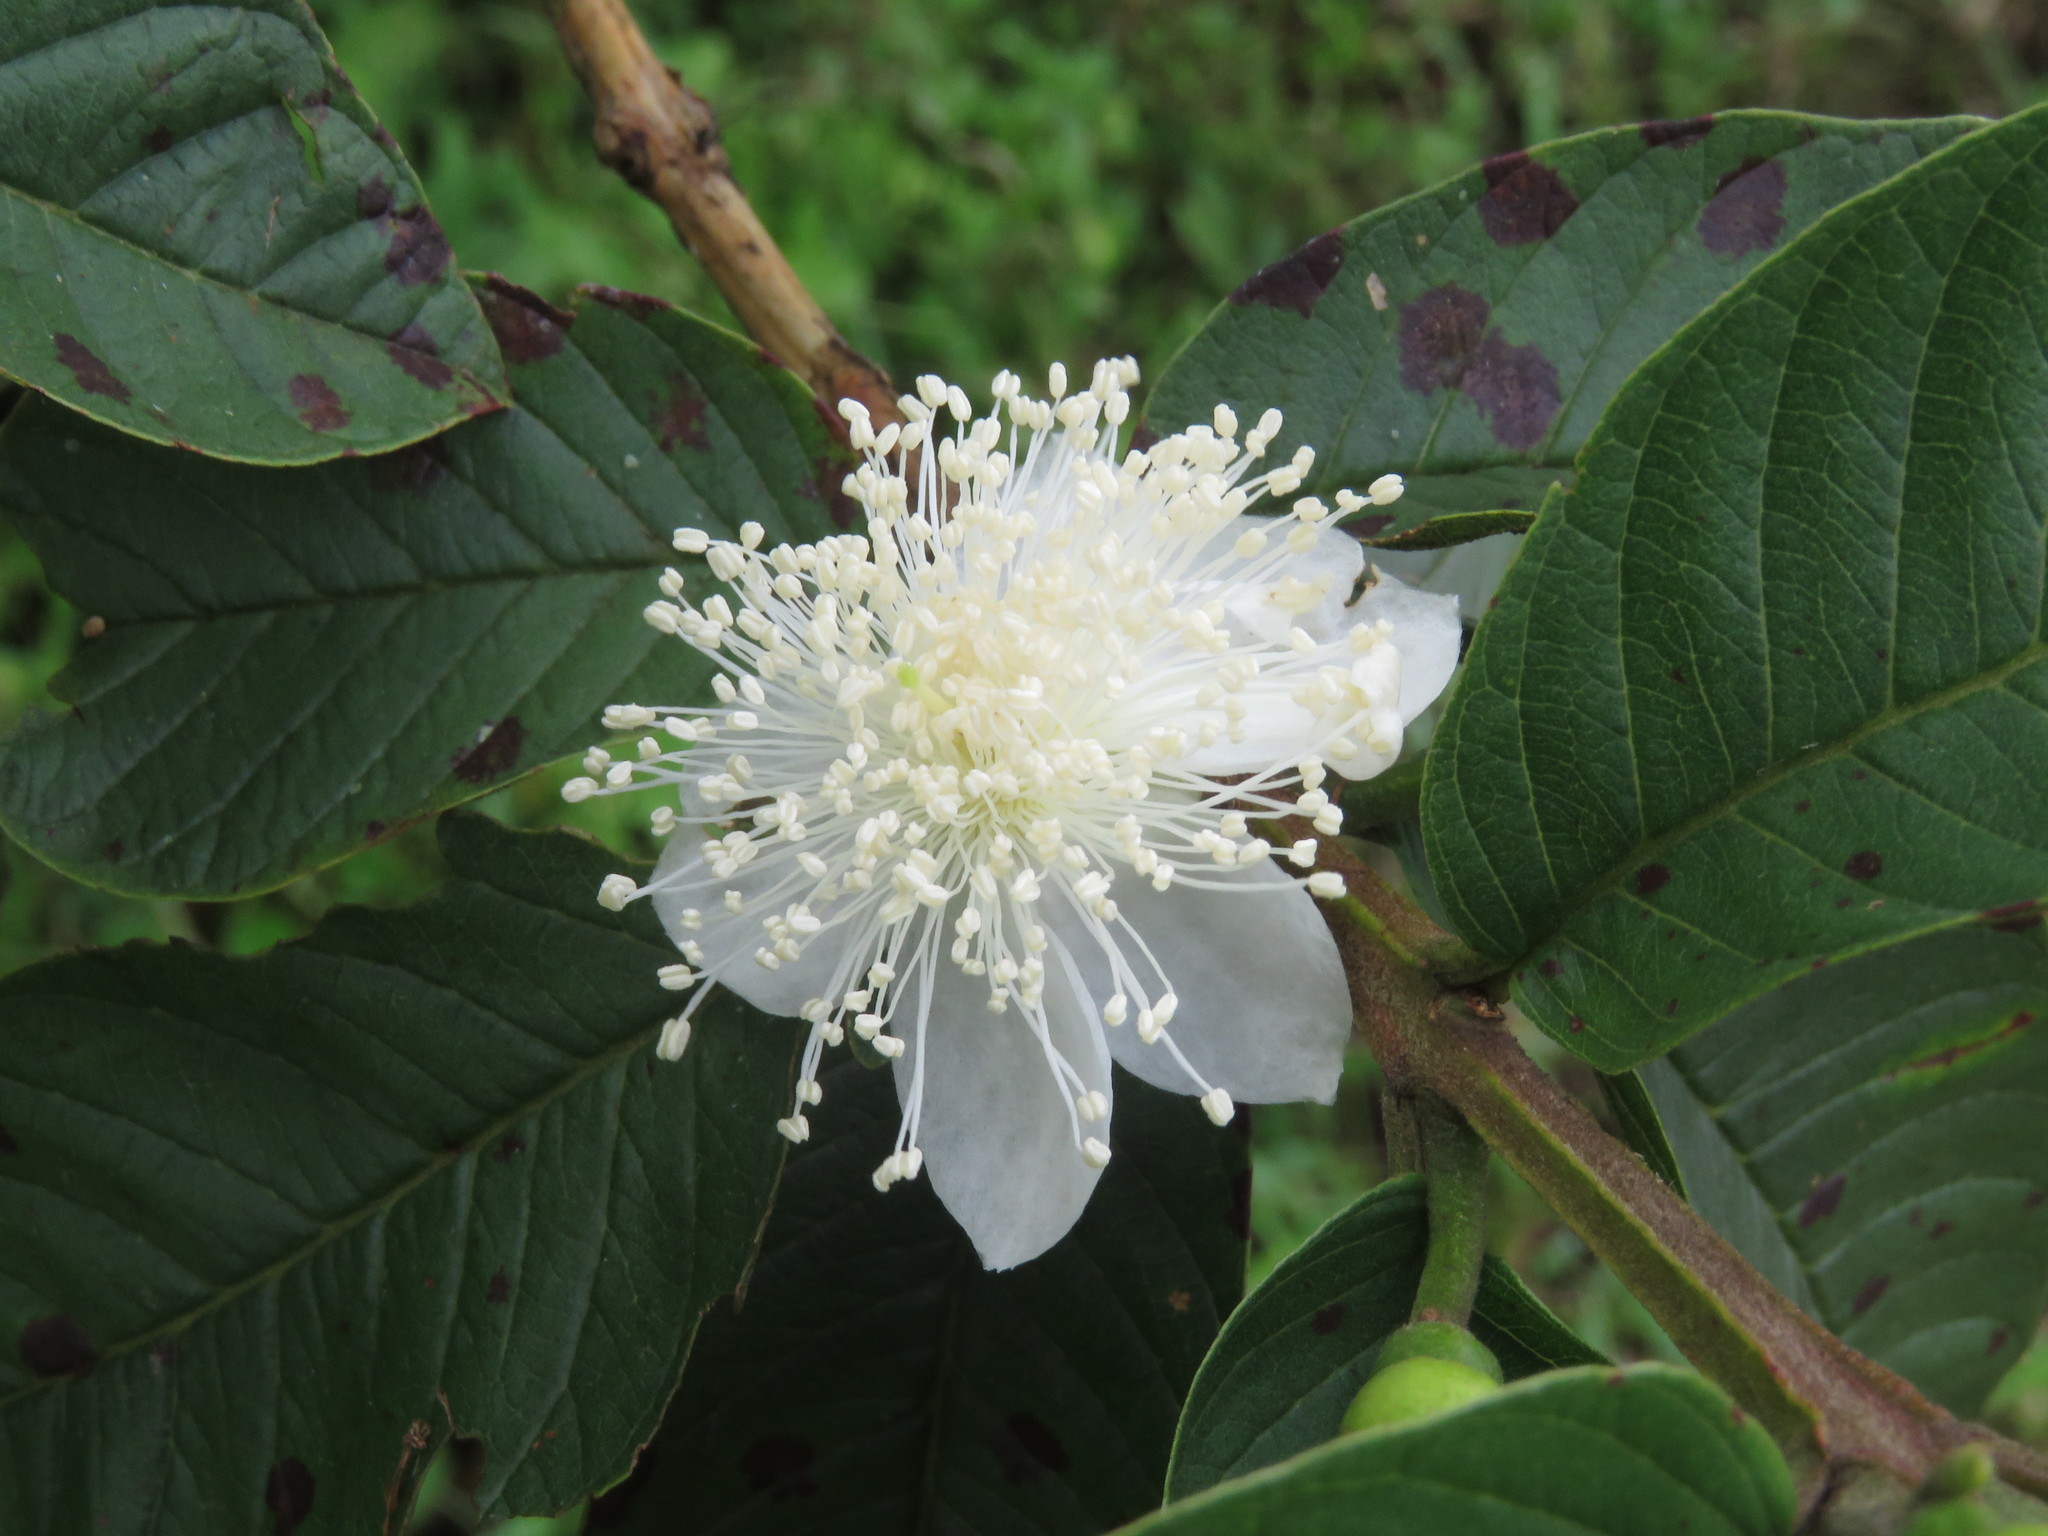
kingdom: Plantae
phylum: Tracheophyta
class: Magnoliopsida
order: Myrtales
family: Myrtaceae
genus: Psidium
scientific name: Psidium guajava
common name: Guava
